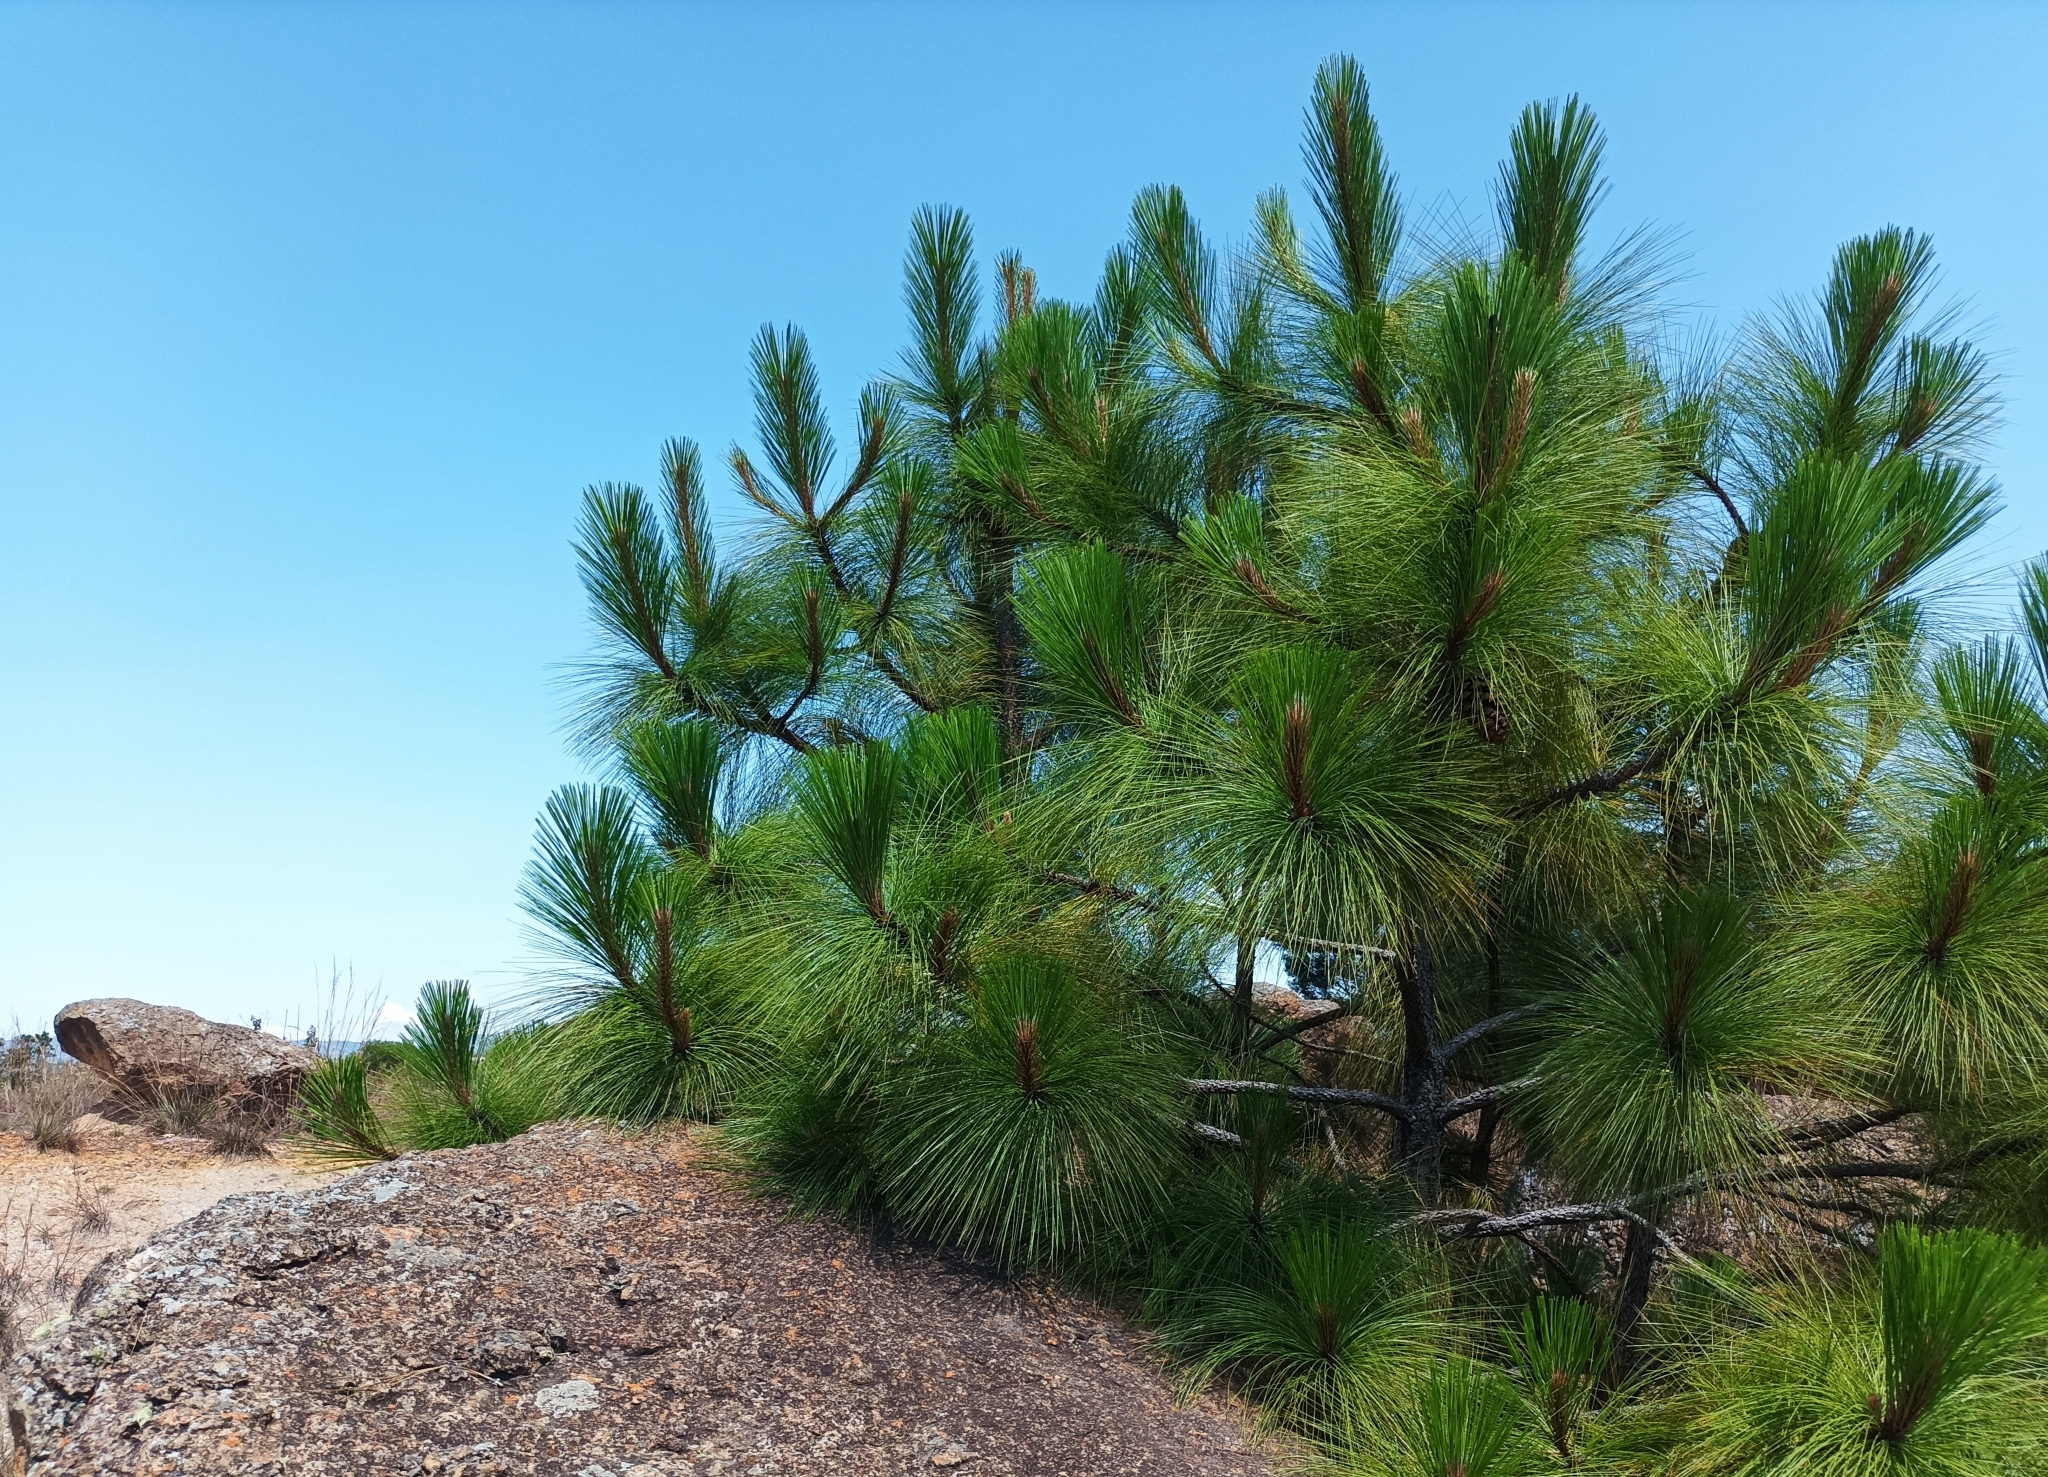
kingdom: Plantae
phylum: Tracheophyta
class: Pinopsida
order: Pinales
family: Pinaceae
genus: Pinus
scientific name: Pinus patula
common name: Mexican weeping pine
